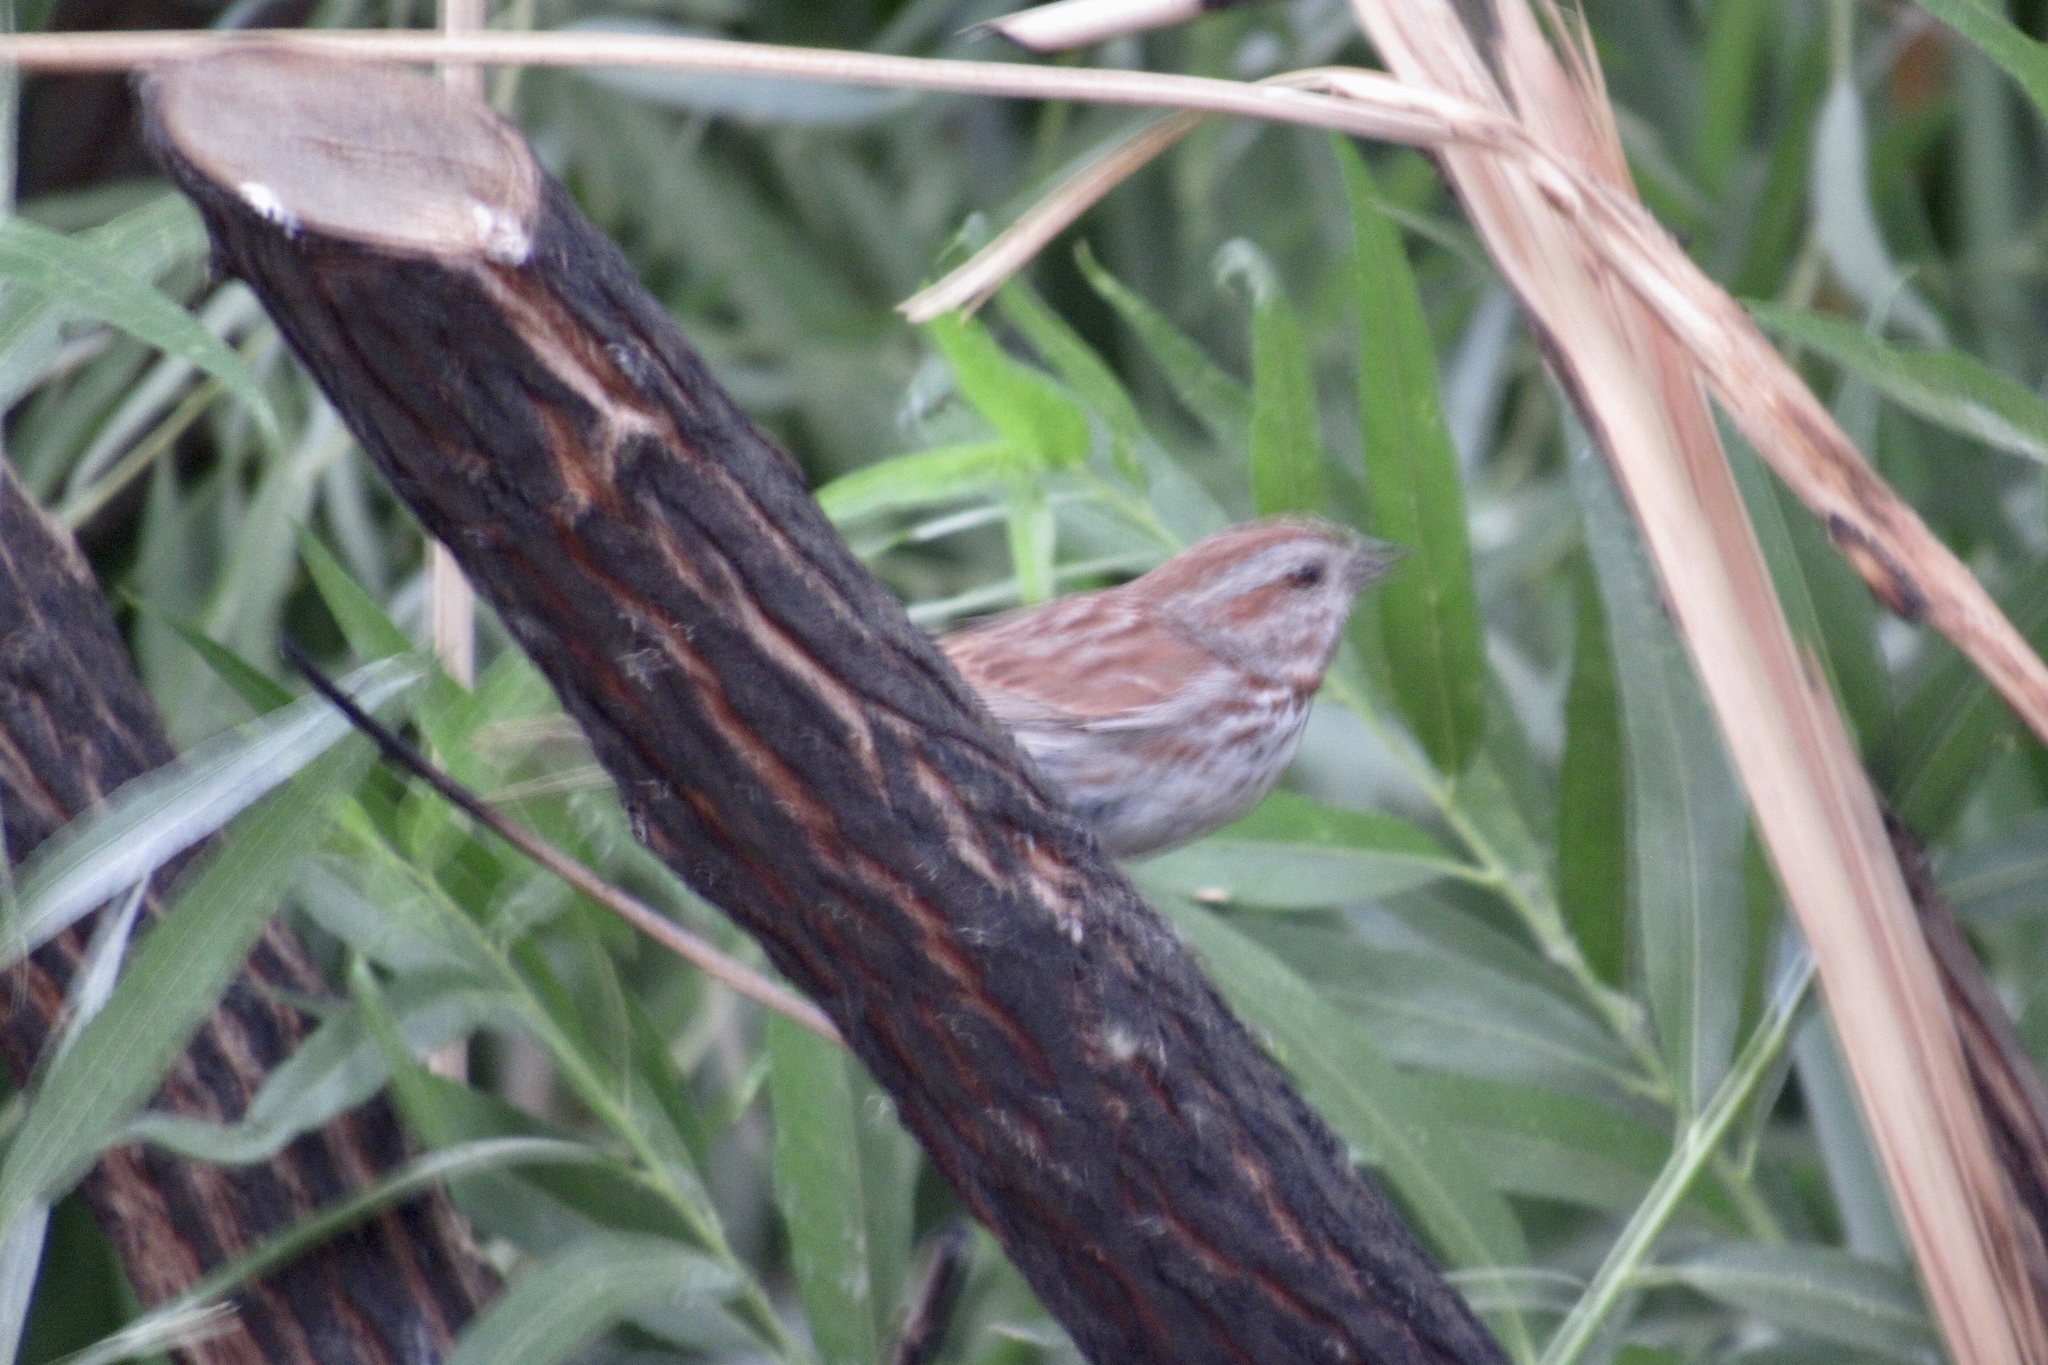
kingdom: Animalia
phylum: Chordata
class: Aves
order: Passeriformes
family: Passerellidae
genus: Melospiza
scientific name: Melospiza melodia
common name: Song sparrow
